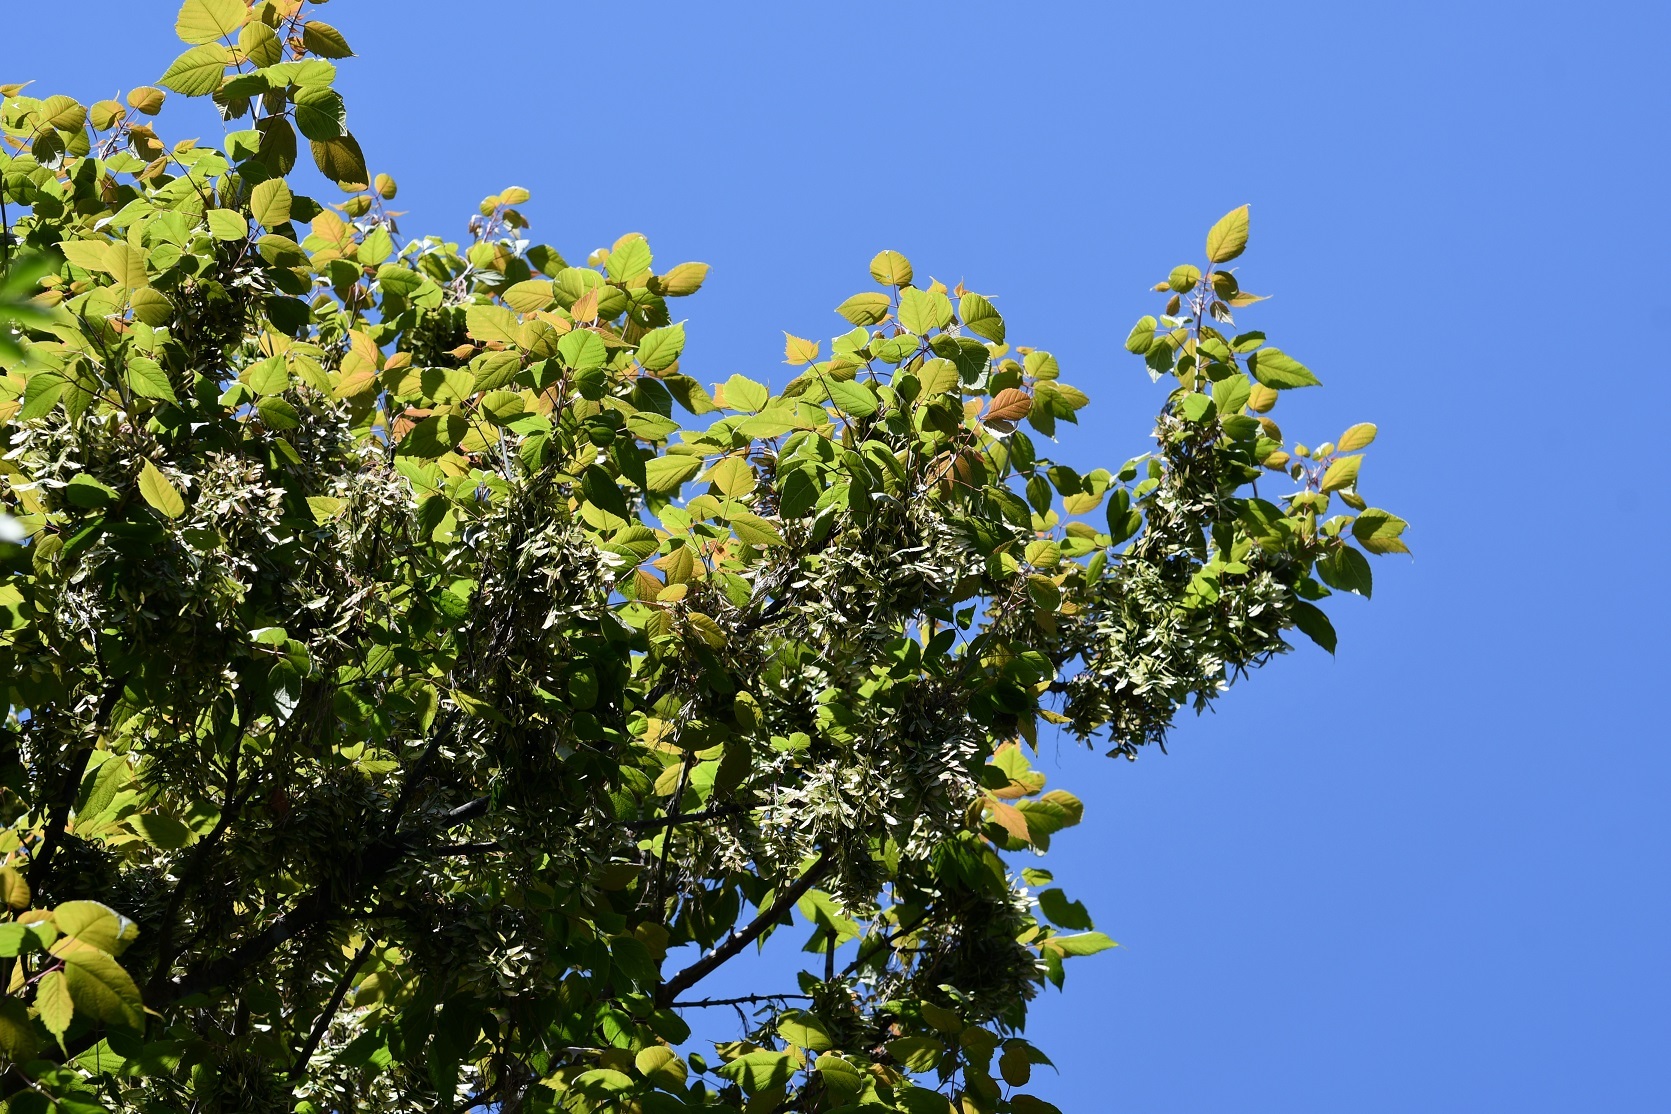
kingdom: Plantae
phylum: Tracheophyta
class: Magnoliopsida
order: Sapindales
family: Sapindaceae
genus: Acer
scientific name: Acer negundo
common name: Ashleaf maple
